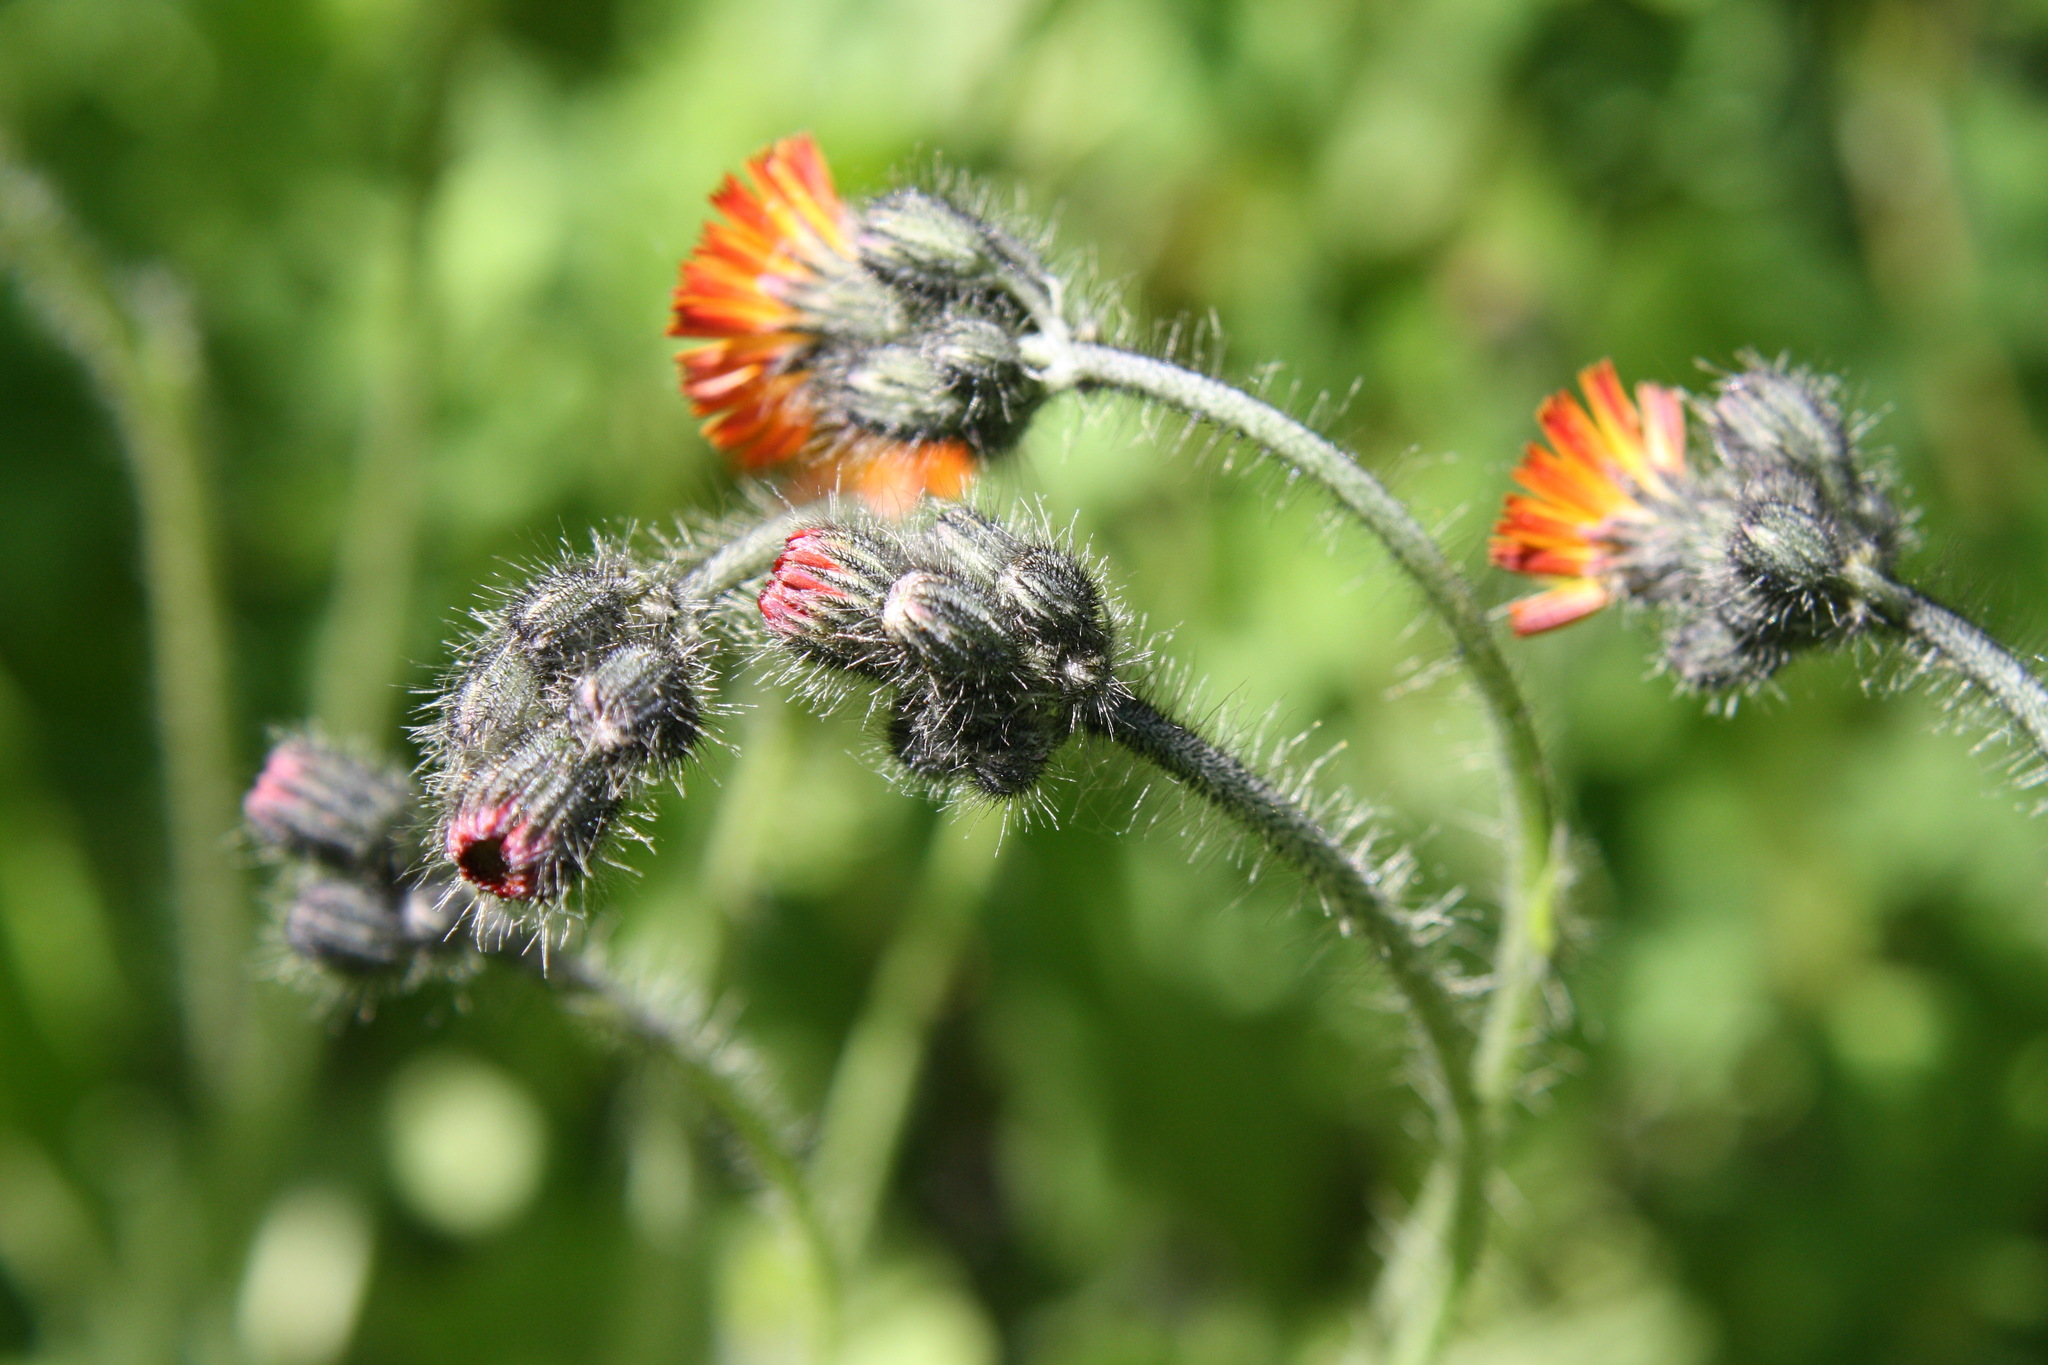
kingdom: Plantae
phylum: Tracheophyta
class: Magnoliopsida
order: Asterales
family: Asteraceae
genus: Pilosella
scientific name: Pilosella aurantiaca
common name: Fox-and-cubs
